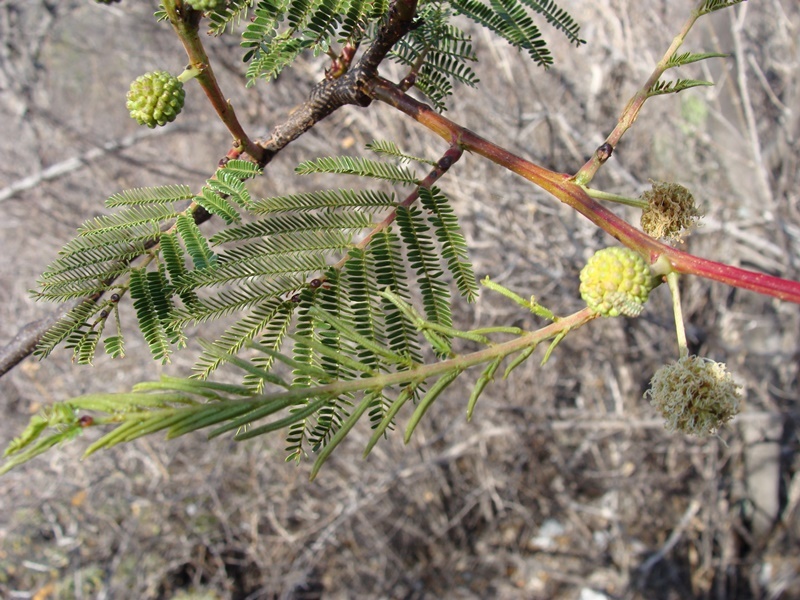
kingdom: Plantae
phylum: Tracheophyta
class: Magnoliopsida
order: Fabales
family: Fabaceae
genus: Senegalia
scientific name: Senegalia subangulata
